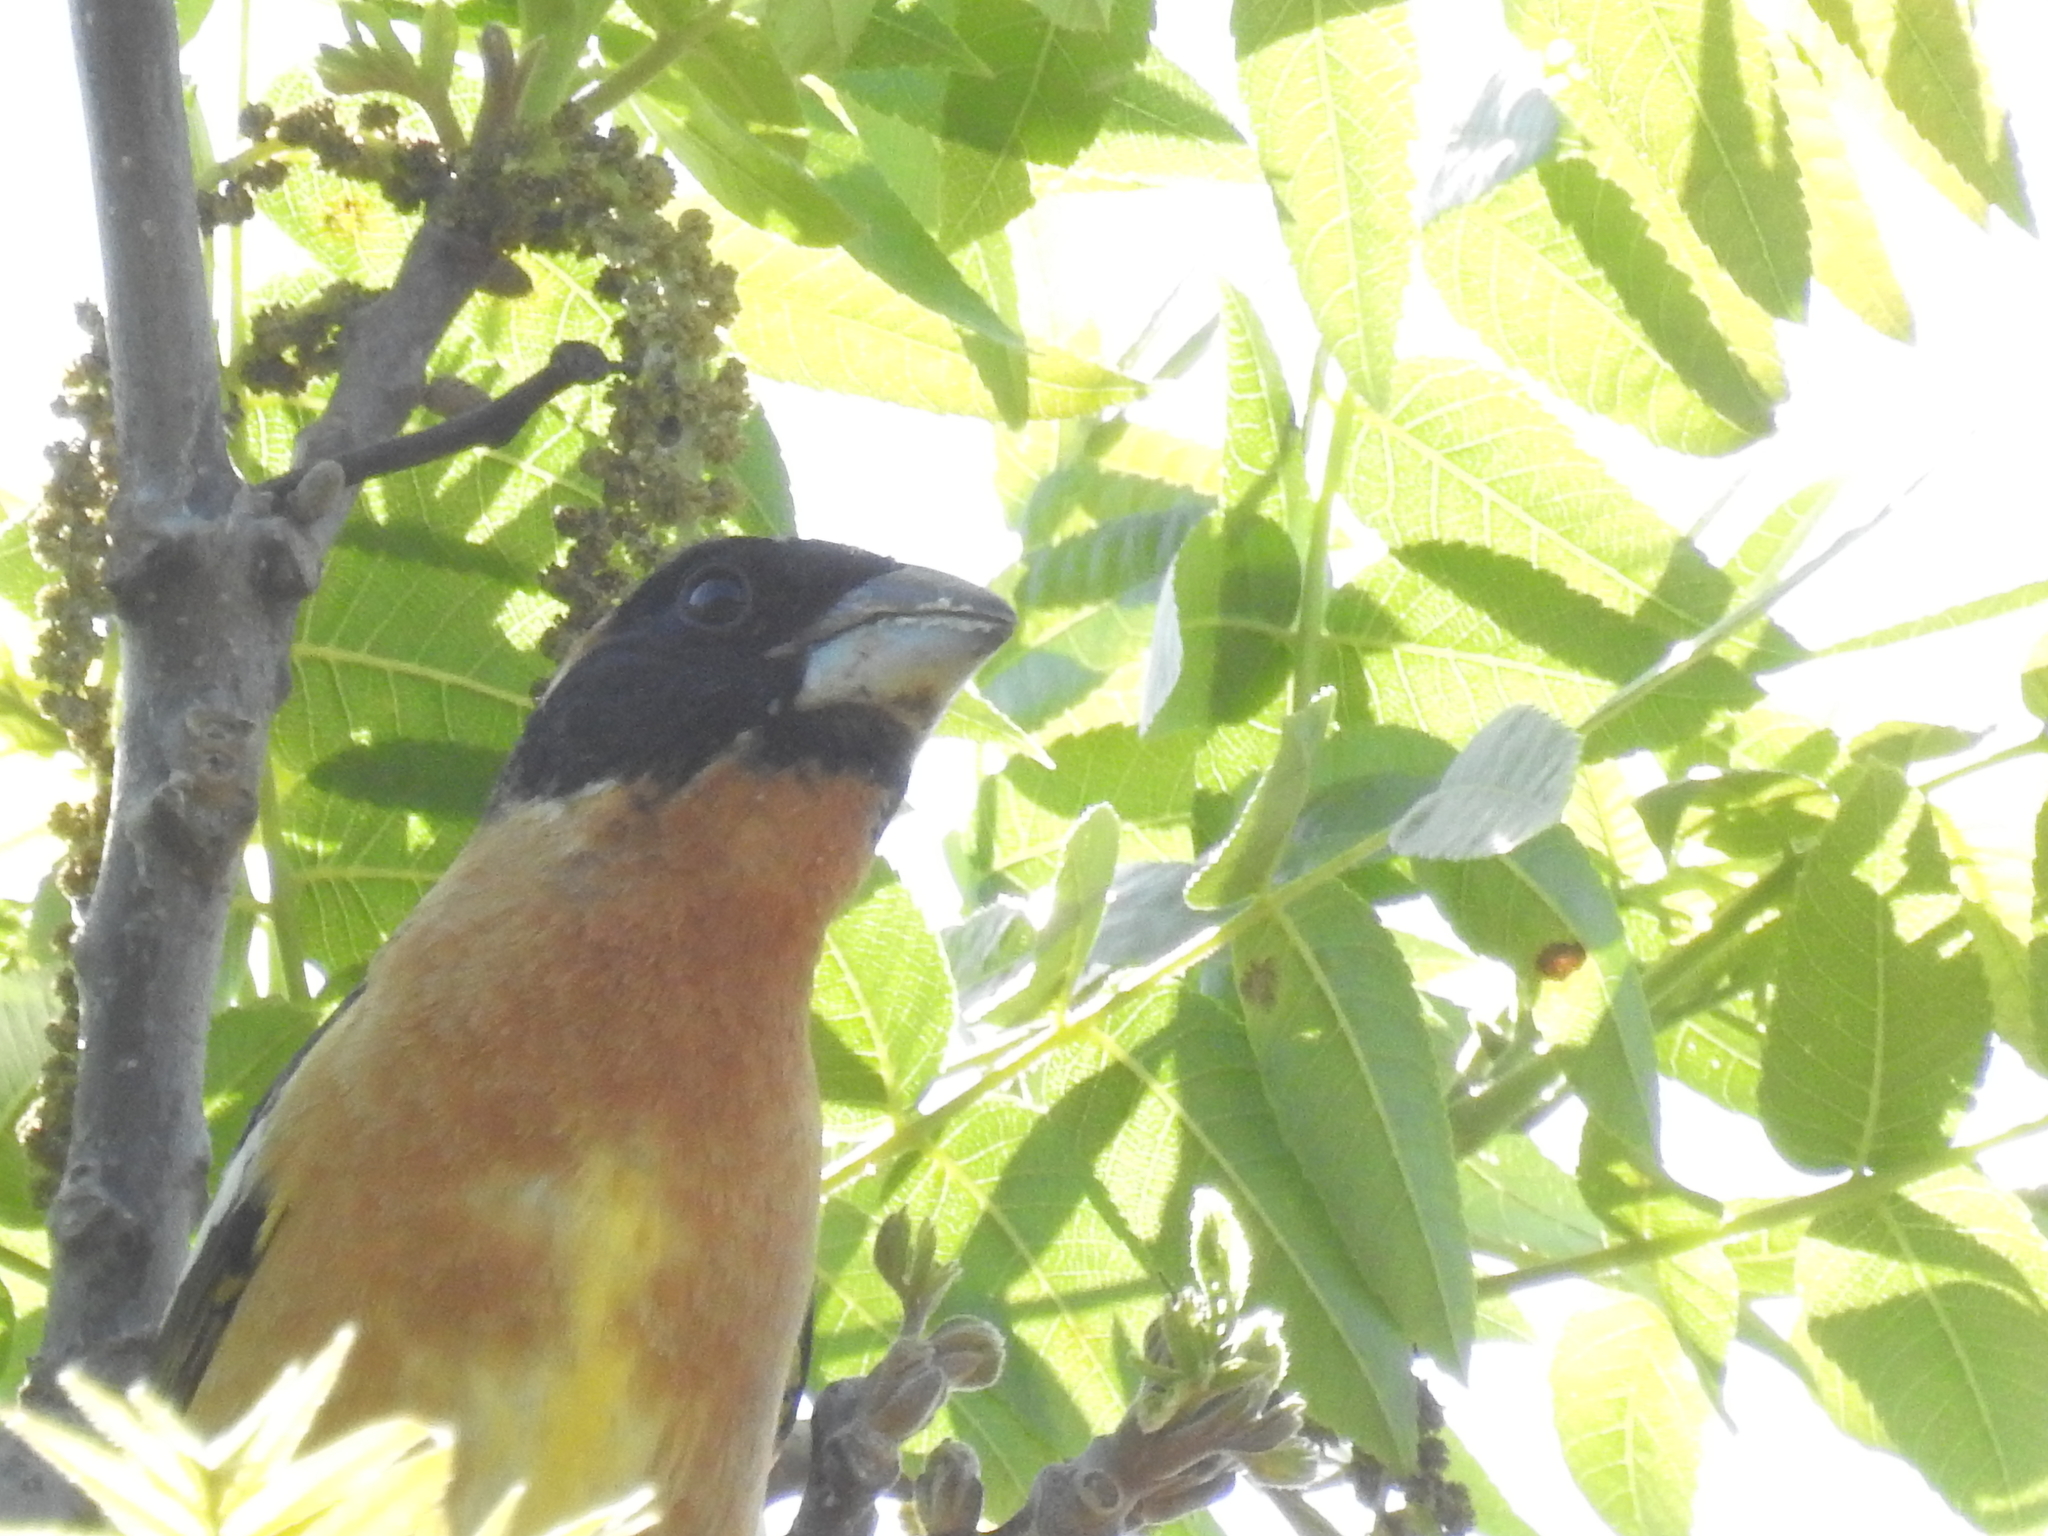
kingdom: Animalia
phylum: Chordata
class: Aves
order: Passeriformes
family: Cardinalidae
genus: Pheucticus
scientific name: Pheucticus melanocephalus
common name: Black-headed grosbeak
